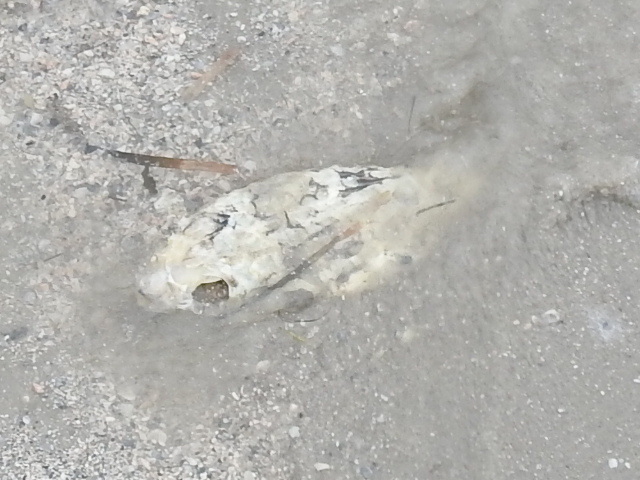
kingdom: Animalia
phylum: Chordata
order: Tetraodontiformes
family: Diodontidae
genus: Chilomycterus
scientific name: Chilomycterus schoepfii
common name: Striped burrfish
